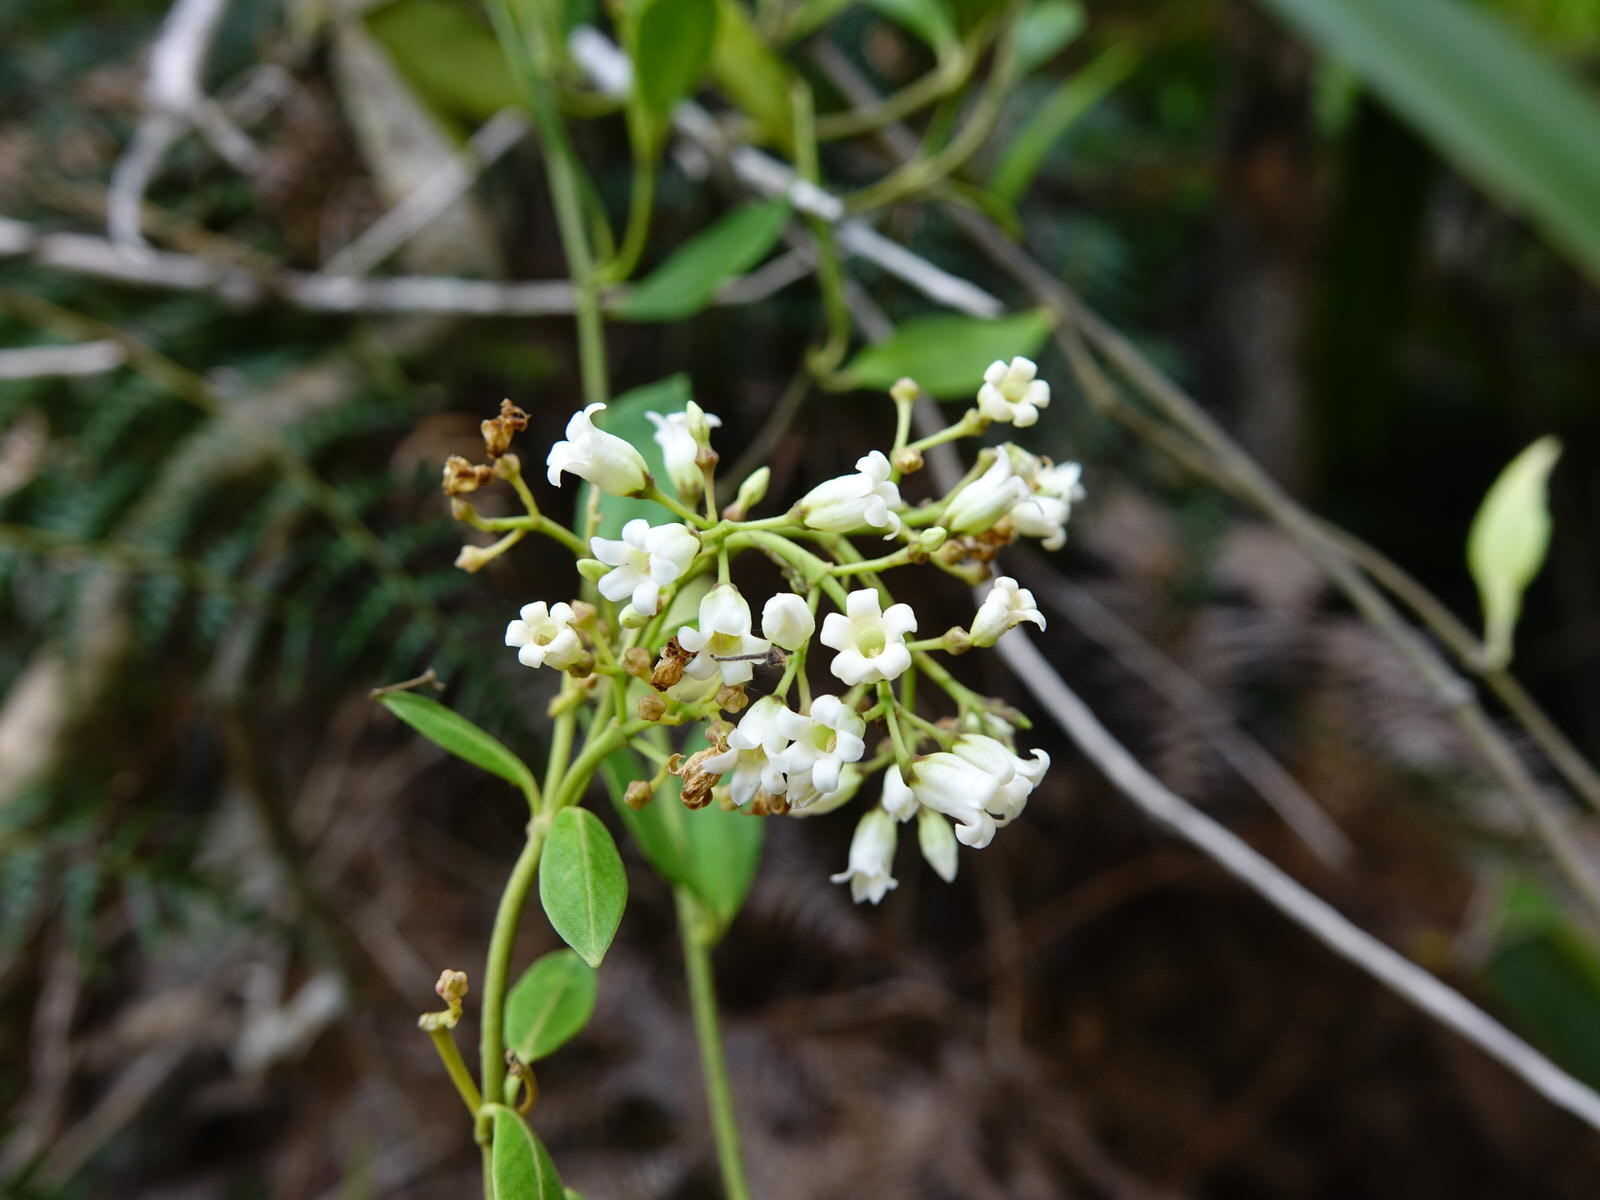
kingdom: Plantae
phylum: Tracheophyta
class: Magnoliopsida
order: Gentianales
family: Apocynaceae
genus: Parsonsia
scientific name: Parsonsia heterophylla
